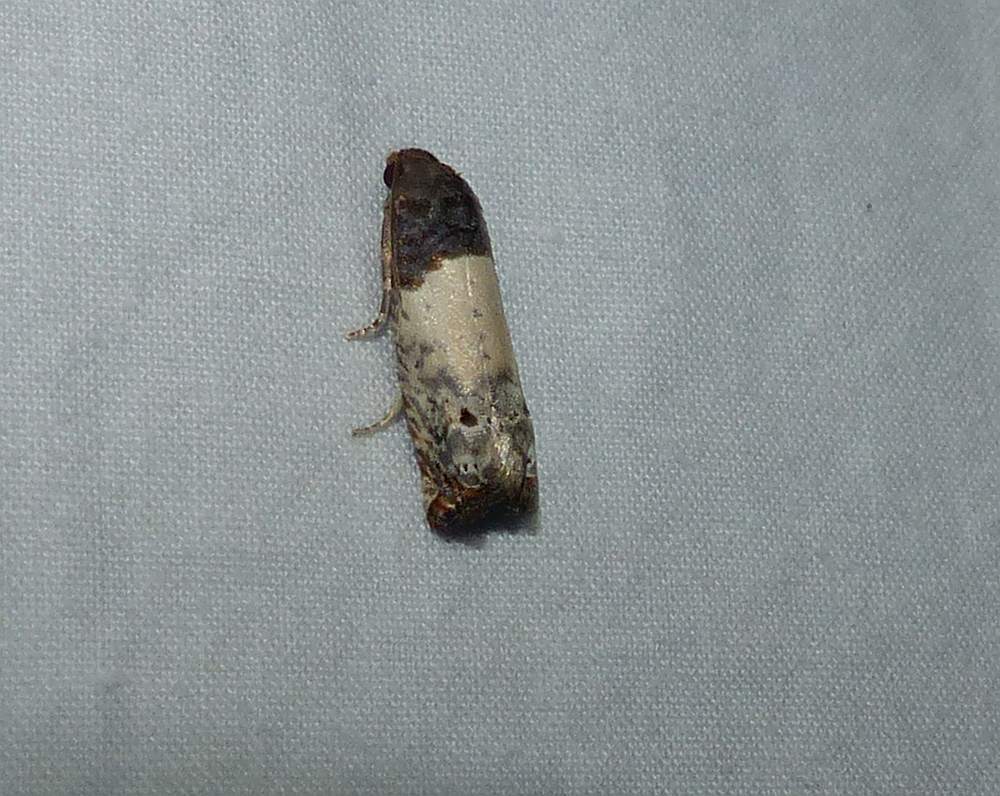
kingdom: Animalia
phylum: Arthropoda
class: Insecta
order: Lepidoptera
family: Tortricidae
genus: Epiblema
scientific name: Epiblema scudderiana
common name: Goldenrod gall moth
